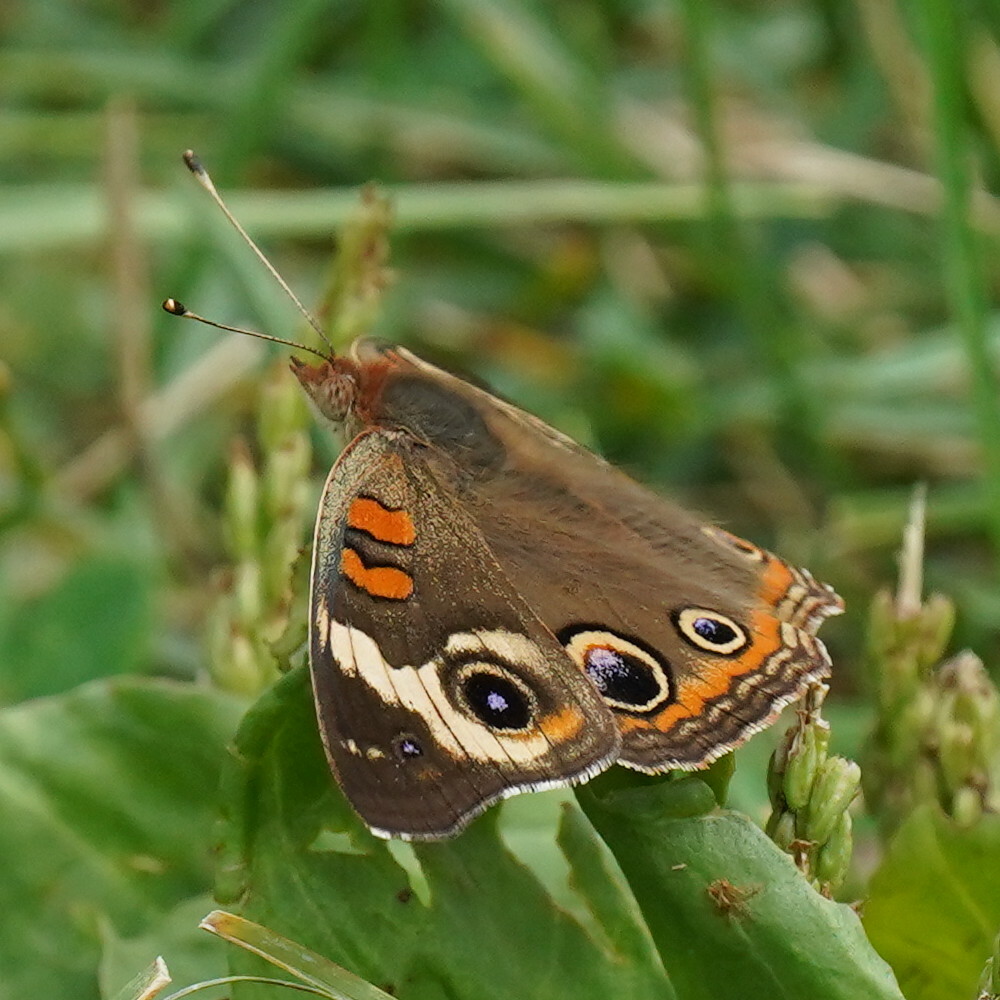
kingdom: Animalia
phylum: Arthropoda
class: Insecta
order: Lepidoptera
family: Nymphalidae
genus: Junonia
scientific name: Junonia coenia
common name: Common buckeye
